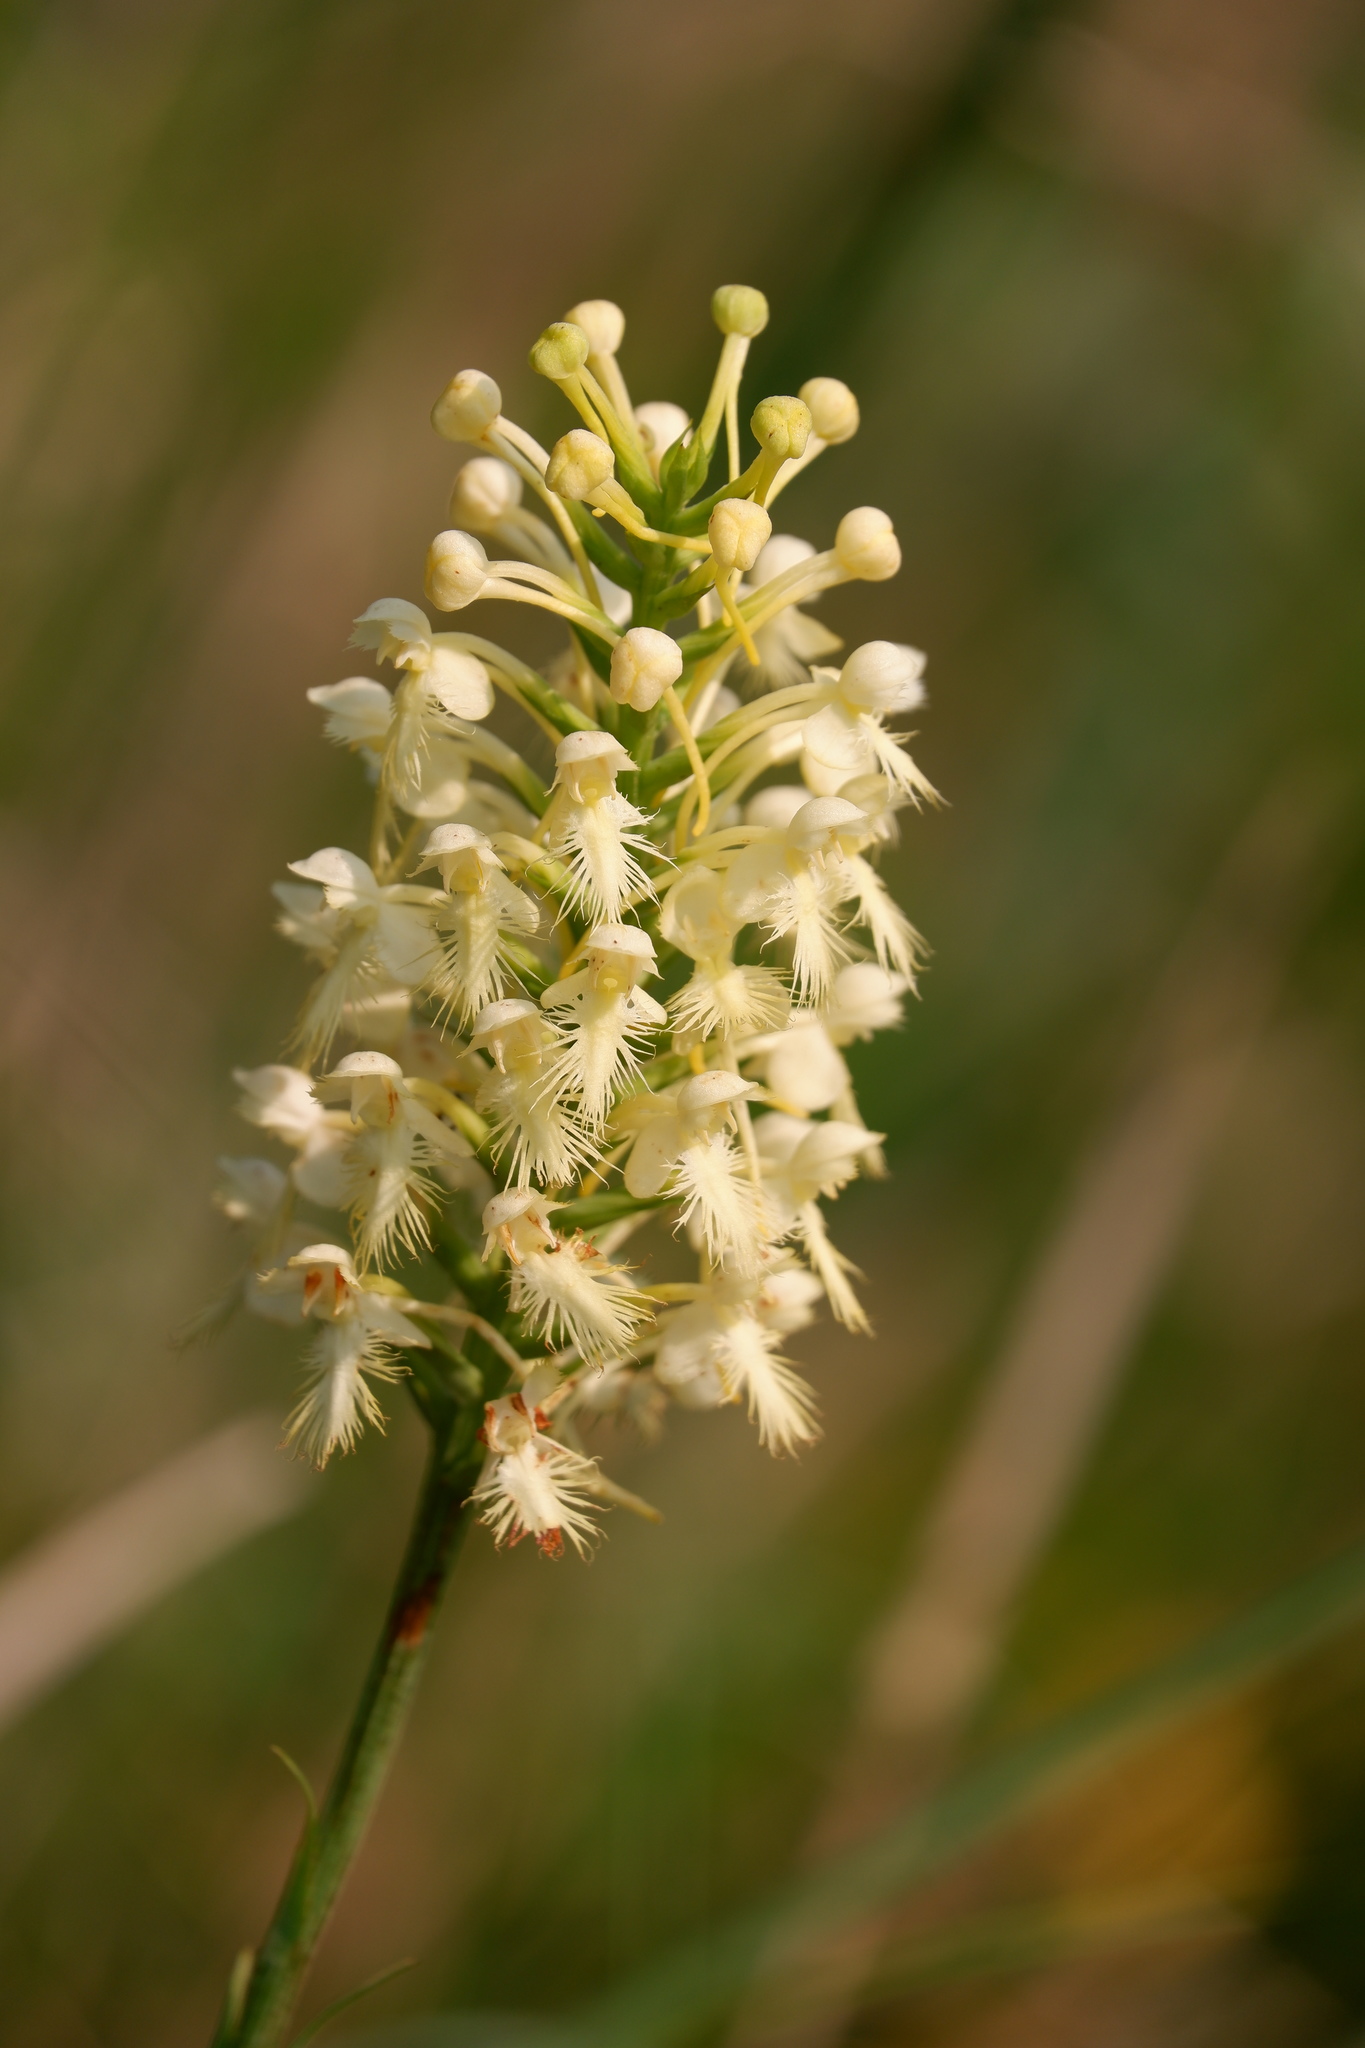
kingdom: Plantae
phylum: Tracheophyta
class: Liliopsida
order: Asparagales
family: Orchidaceae
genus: Platanthera
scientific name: Platanthera canbyi
